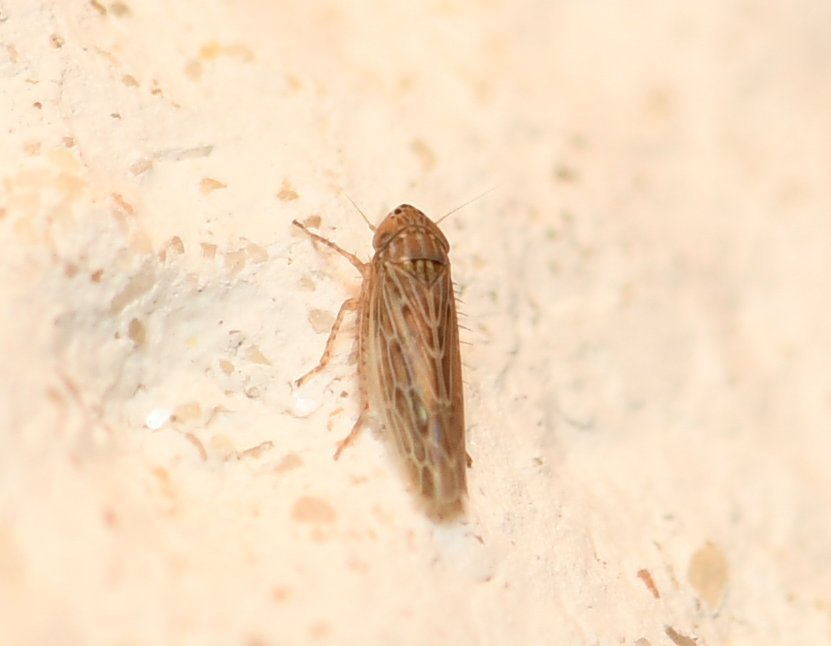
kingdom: Animalia
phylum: Arthropoda
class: Insecta
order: Hemiptera
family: Cicadellidae
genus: Graminella
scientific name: Graminella sonora
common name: Lesser lawn leafhopper
